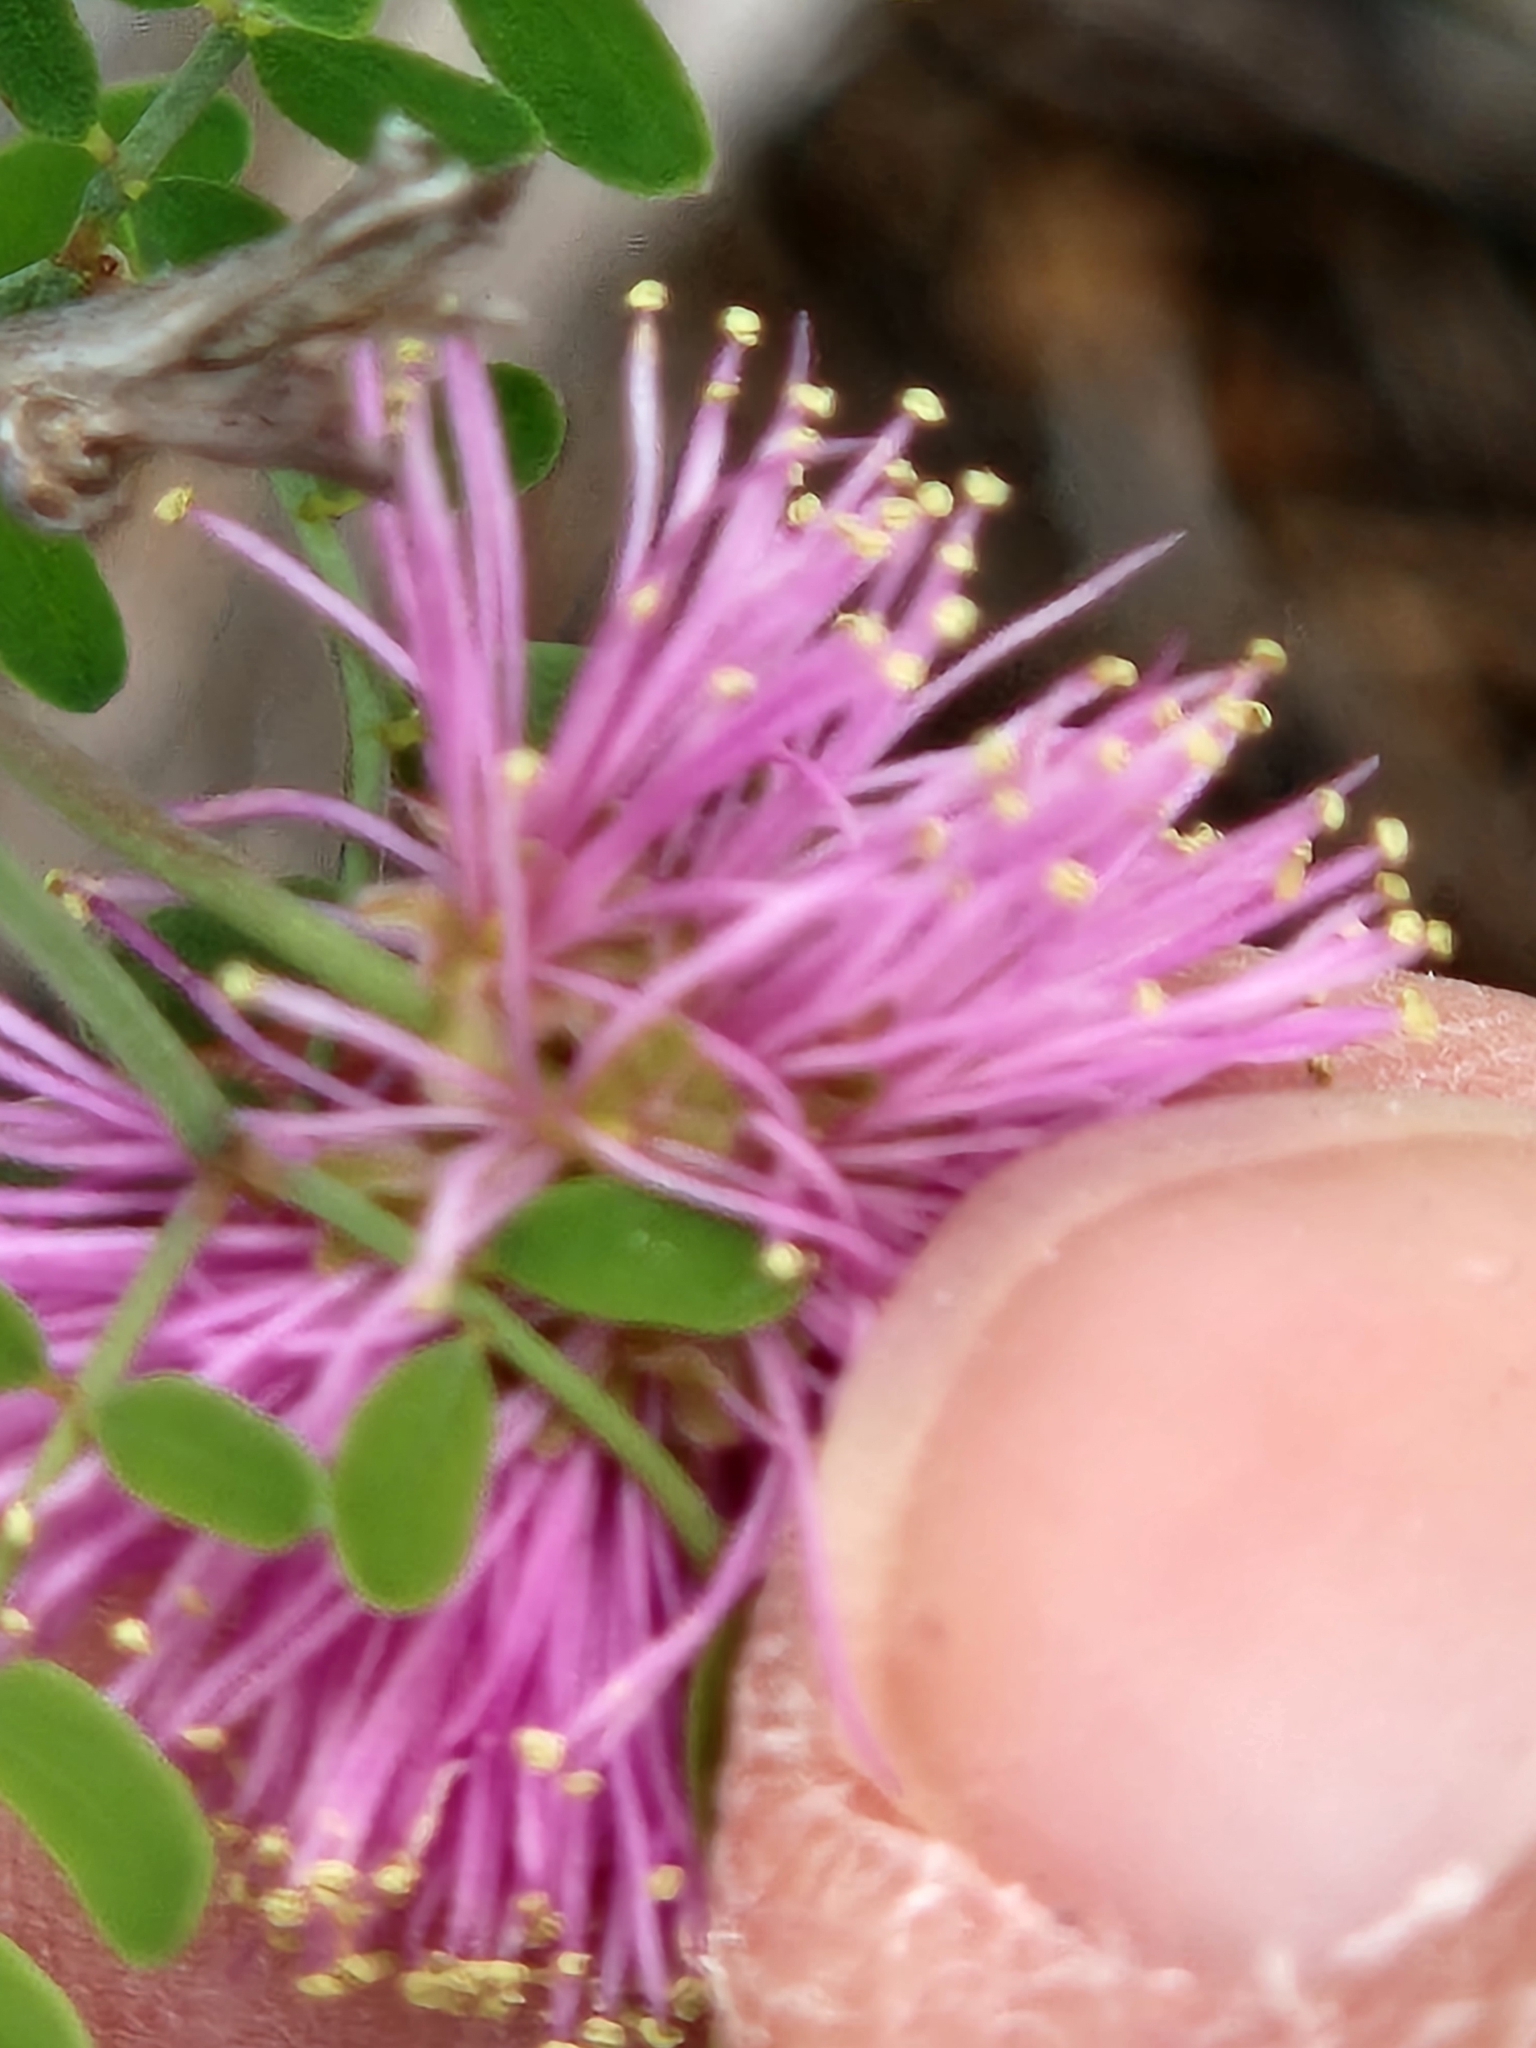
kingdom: Plantae
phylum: Tracheophyta
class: Magnoliopsida
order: Fabales
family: Fabaceae
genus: Mimosa
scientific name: Mimosa borealis
